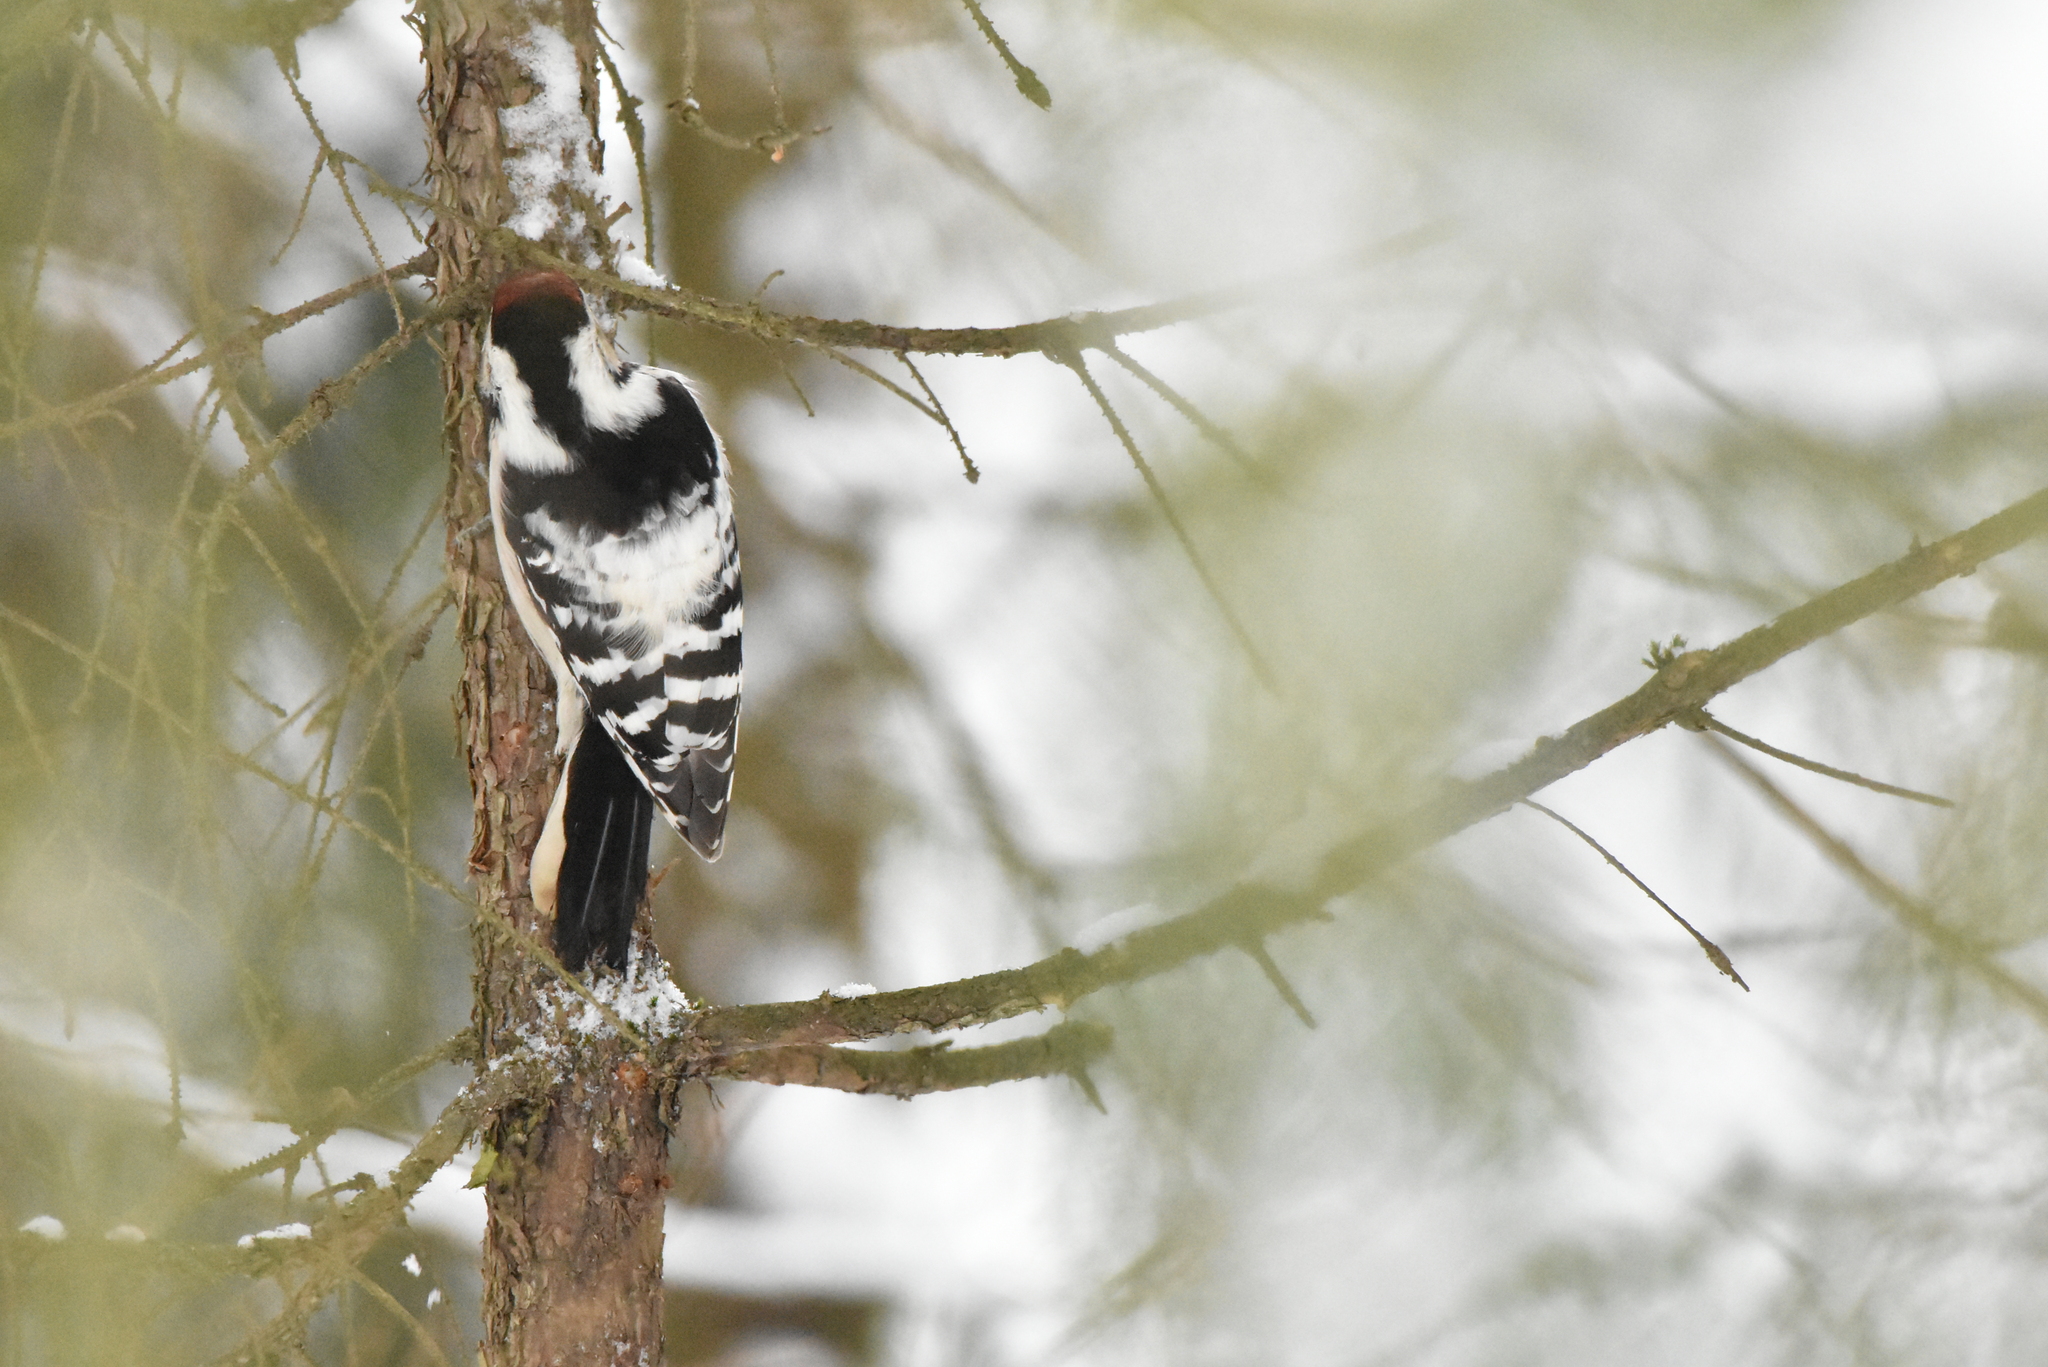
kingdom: Animalia
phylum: Chordata
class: Aves
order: Piciformes
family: Picidae
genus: Dryobates
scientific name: Dryobates minor
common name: Lesser spotted woodpecker
